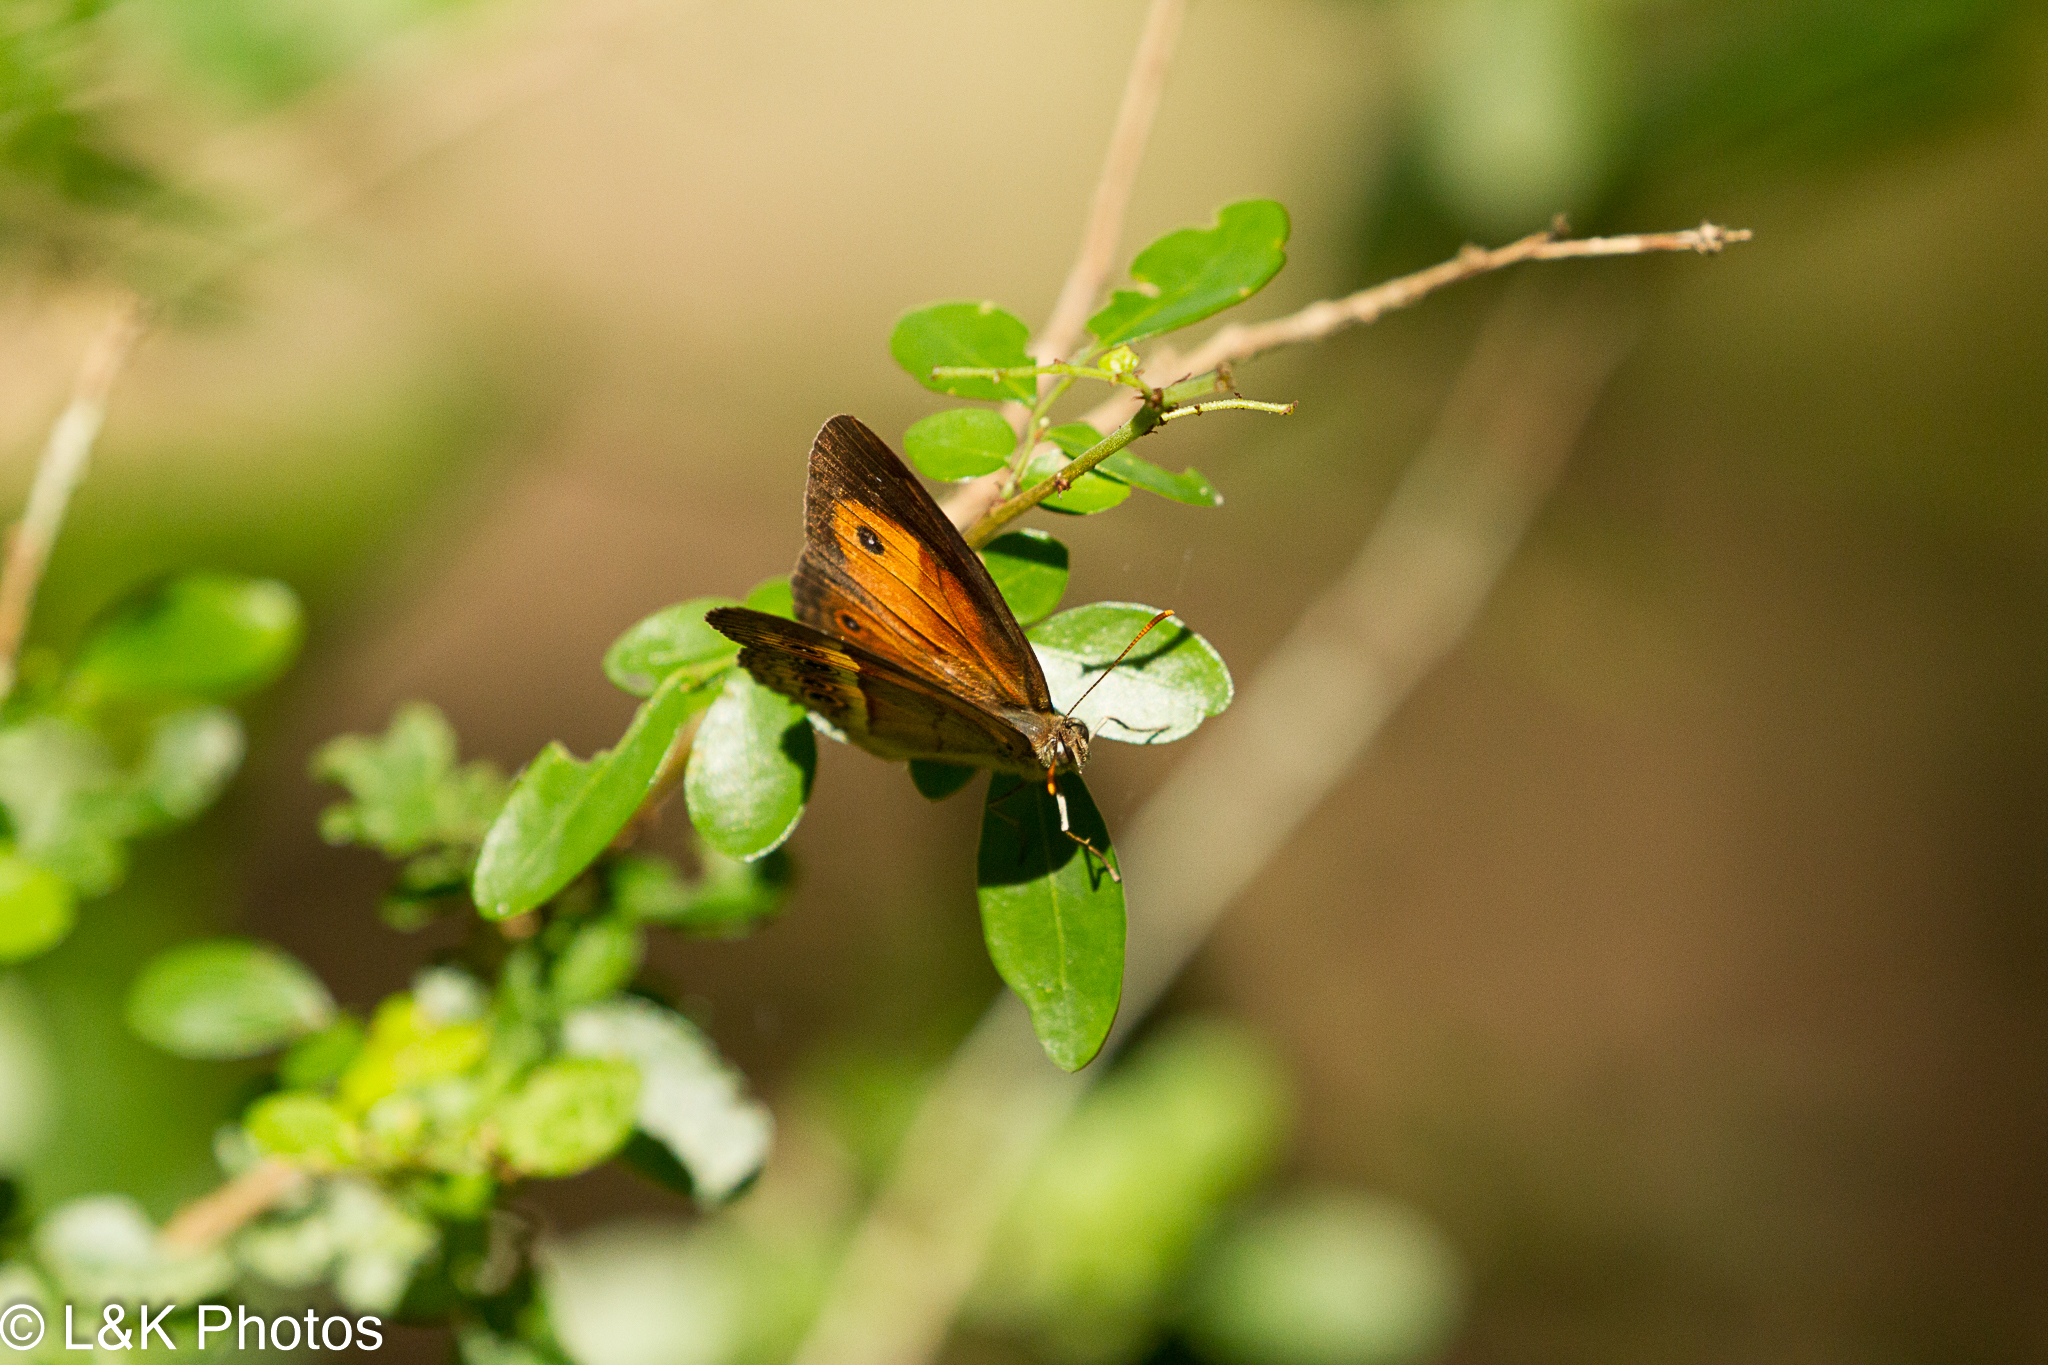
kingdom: Animalia
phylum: Arthropoda
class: Insecta
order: Lepidoptera
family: Nymphalidae
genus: Mycalesis
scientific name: Mycalesis terminus
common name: Orange bushbrown
